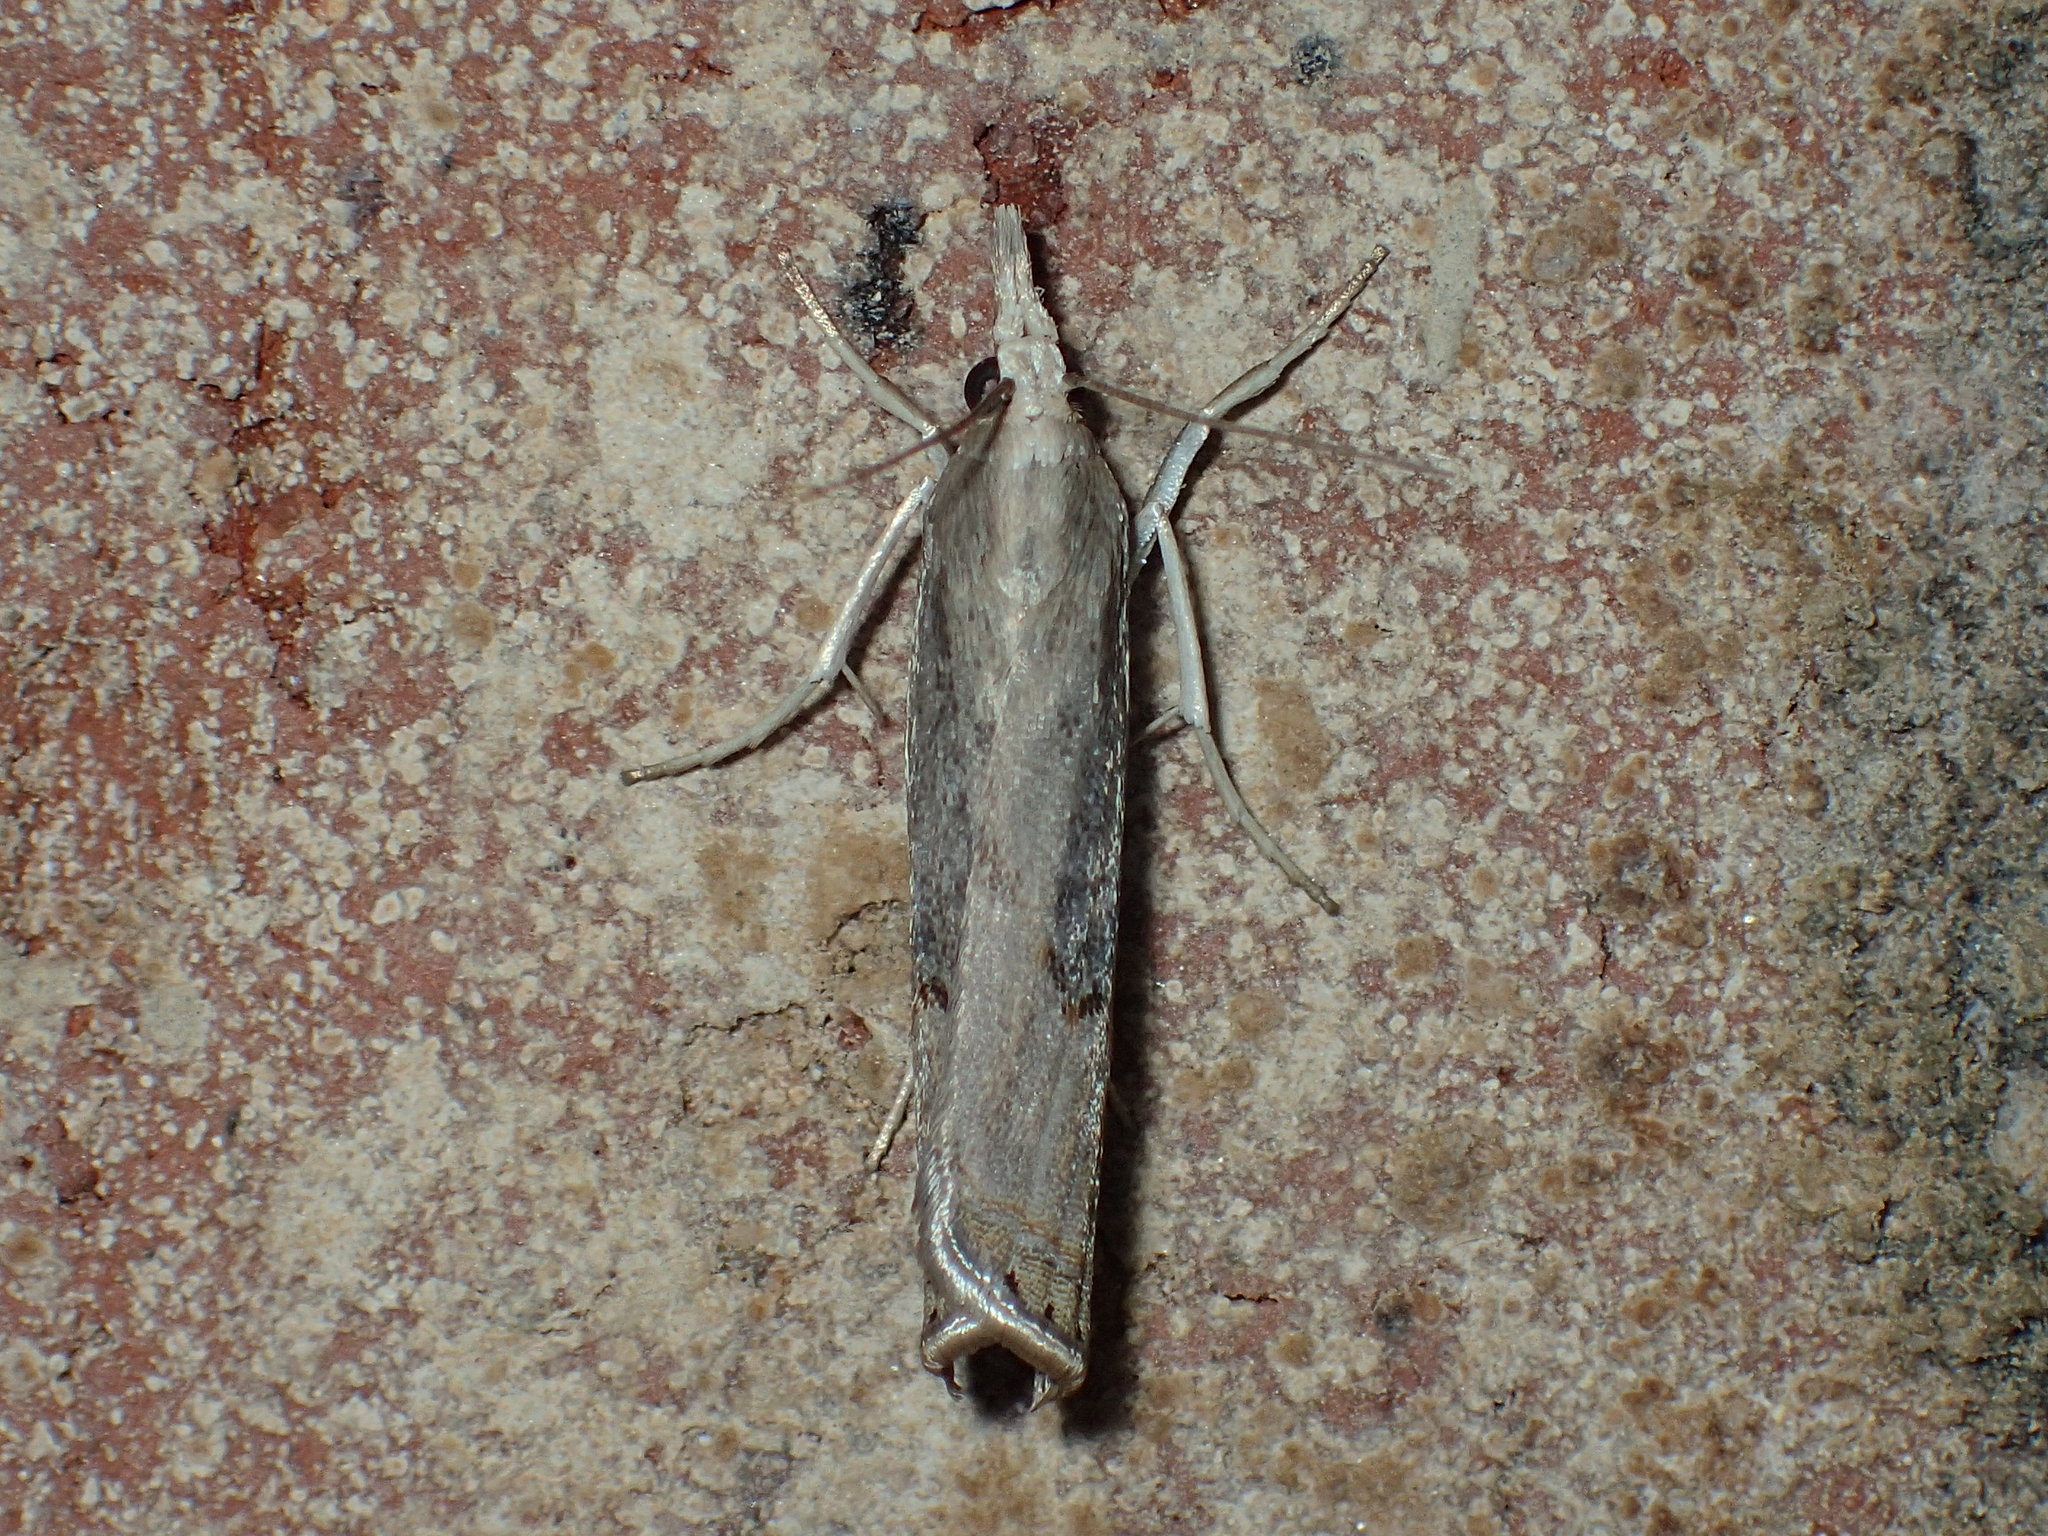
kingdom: Animalia
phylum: Arthropoda
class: Insecta
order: Lepidoptera
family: Crambidae
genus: Parapediasia
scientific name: Parapediasia teterellus
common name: Bluegrass webworm moth
